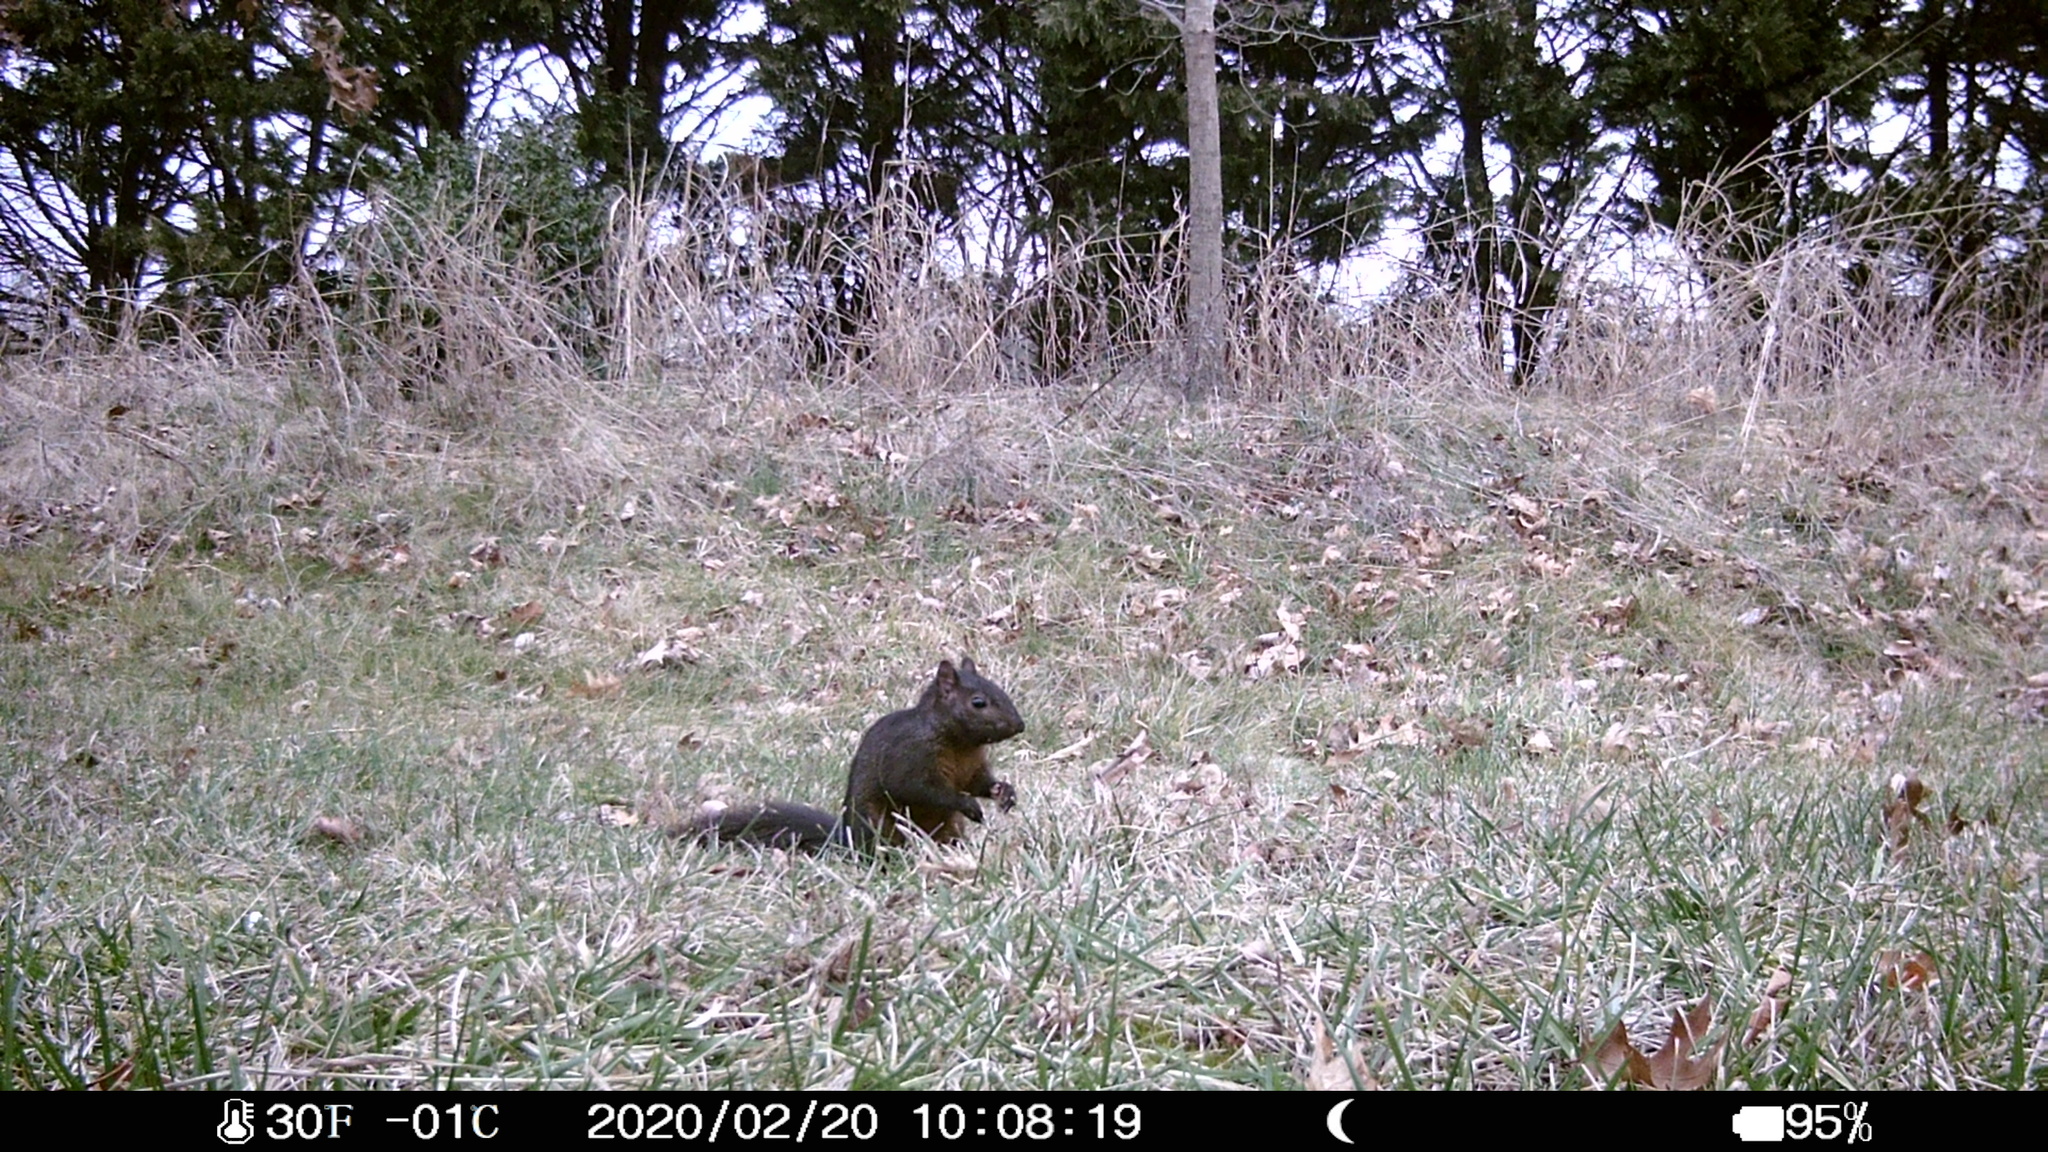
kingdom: Animalia
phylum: Chordata
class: Mammalia
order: Rodentia
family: Sciuridae
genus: Sciurus
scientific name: Sciurus carolinensis
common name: Eastern gray squirrel
